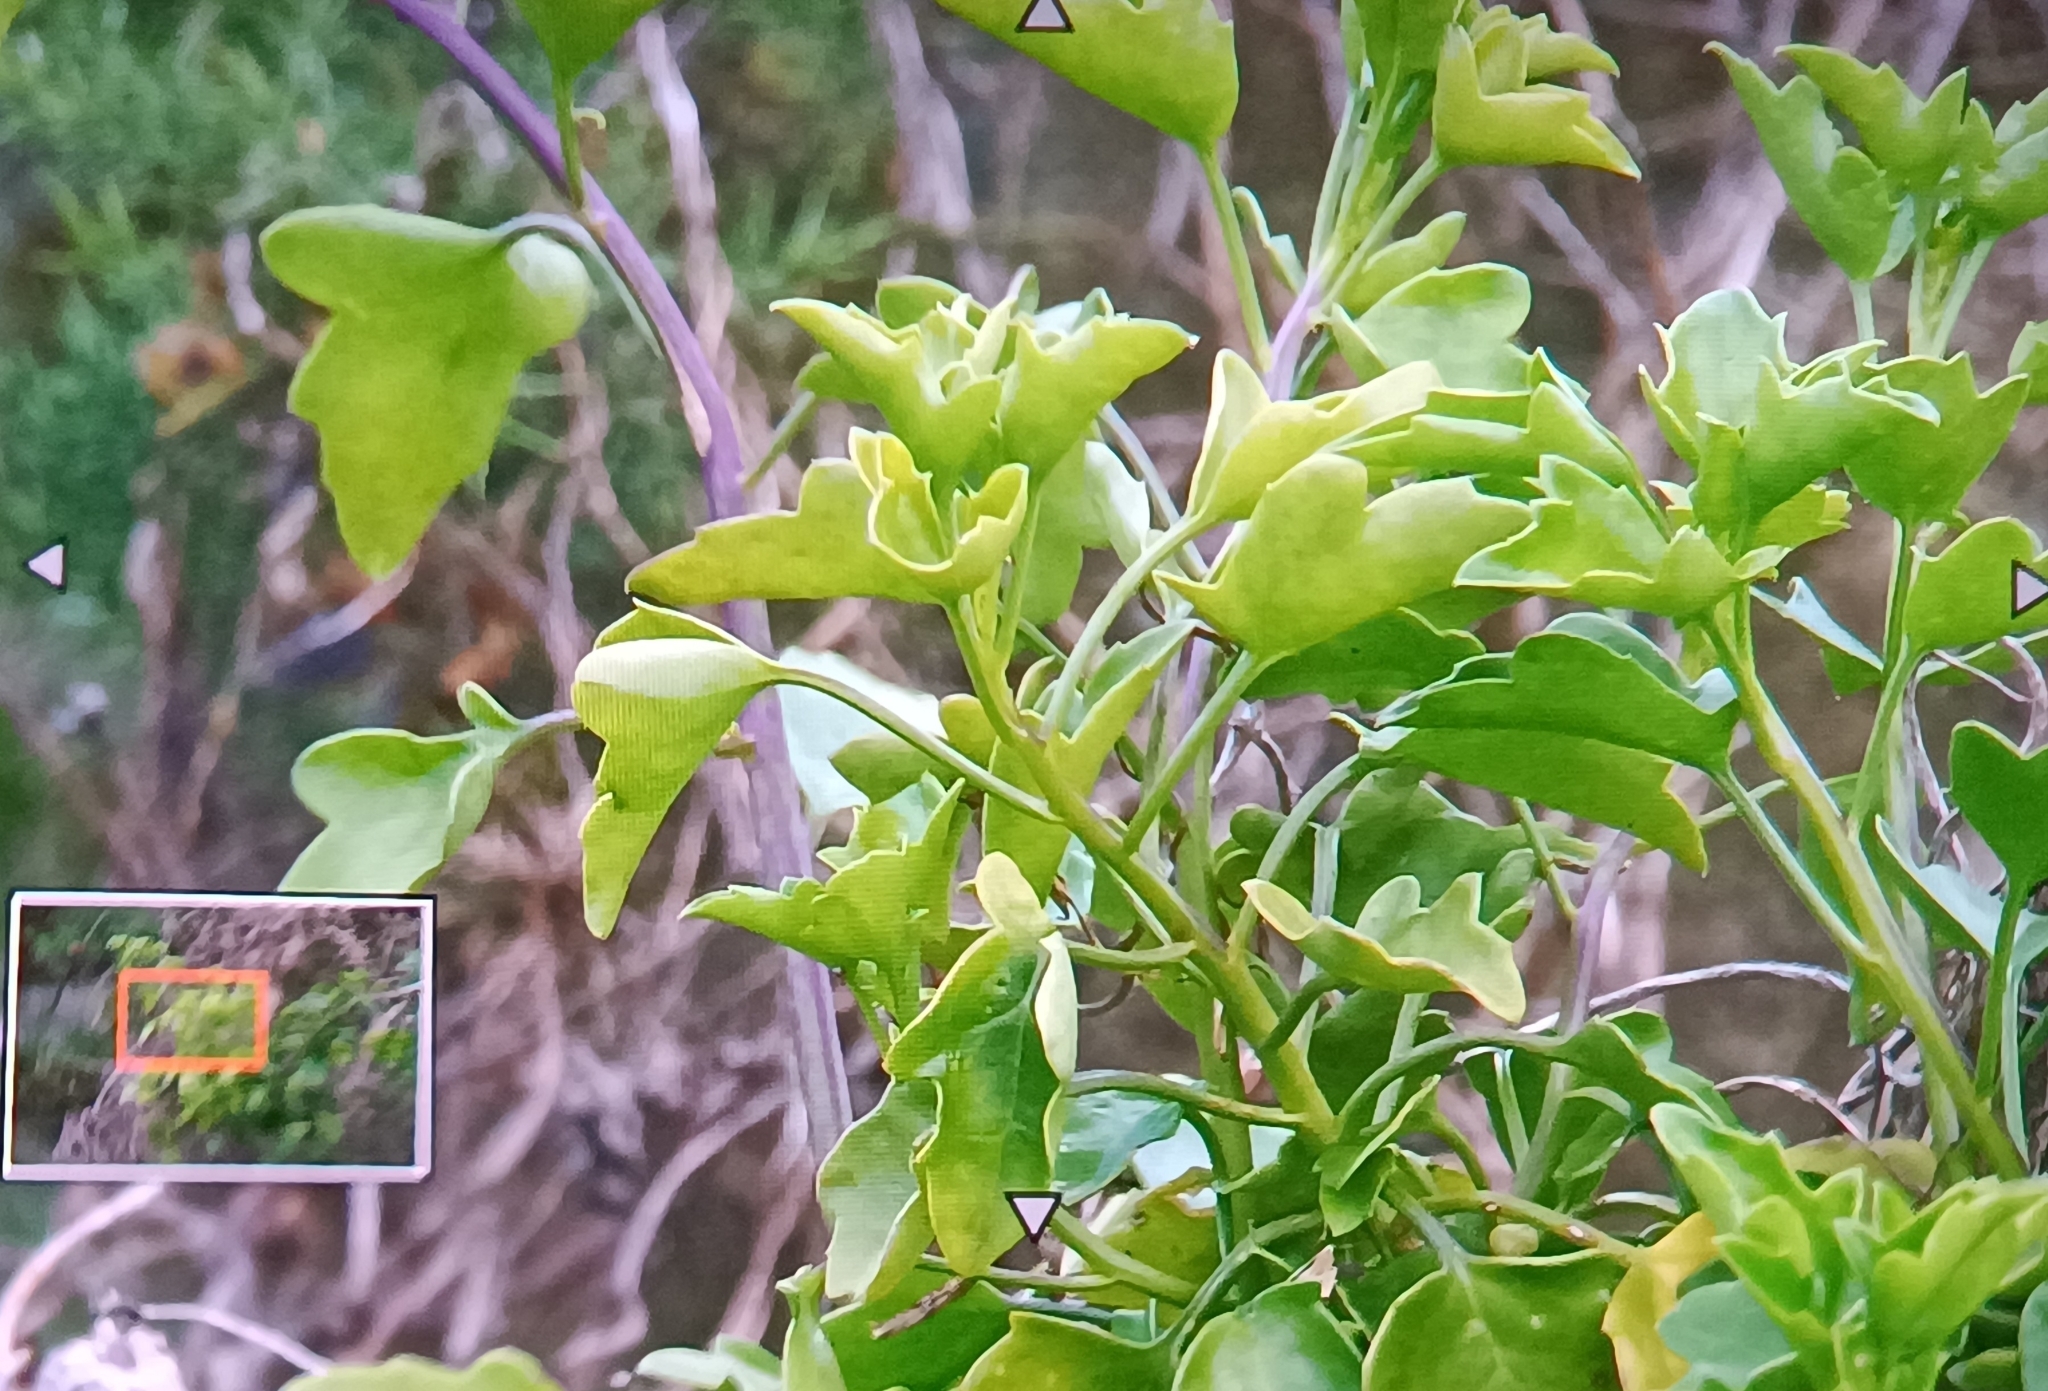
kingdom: Plantae
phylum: Tracheophyta
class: Magnoliopsida
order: Asterales
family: Asteraceae
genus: Senecio
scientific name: Senecio angulatus
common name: Climbing groundsel
